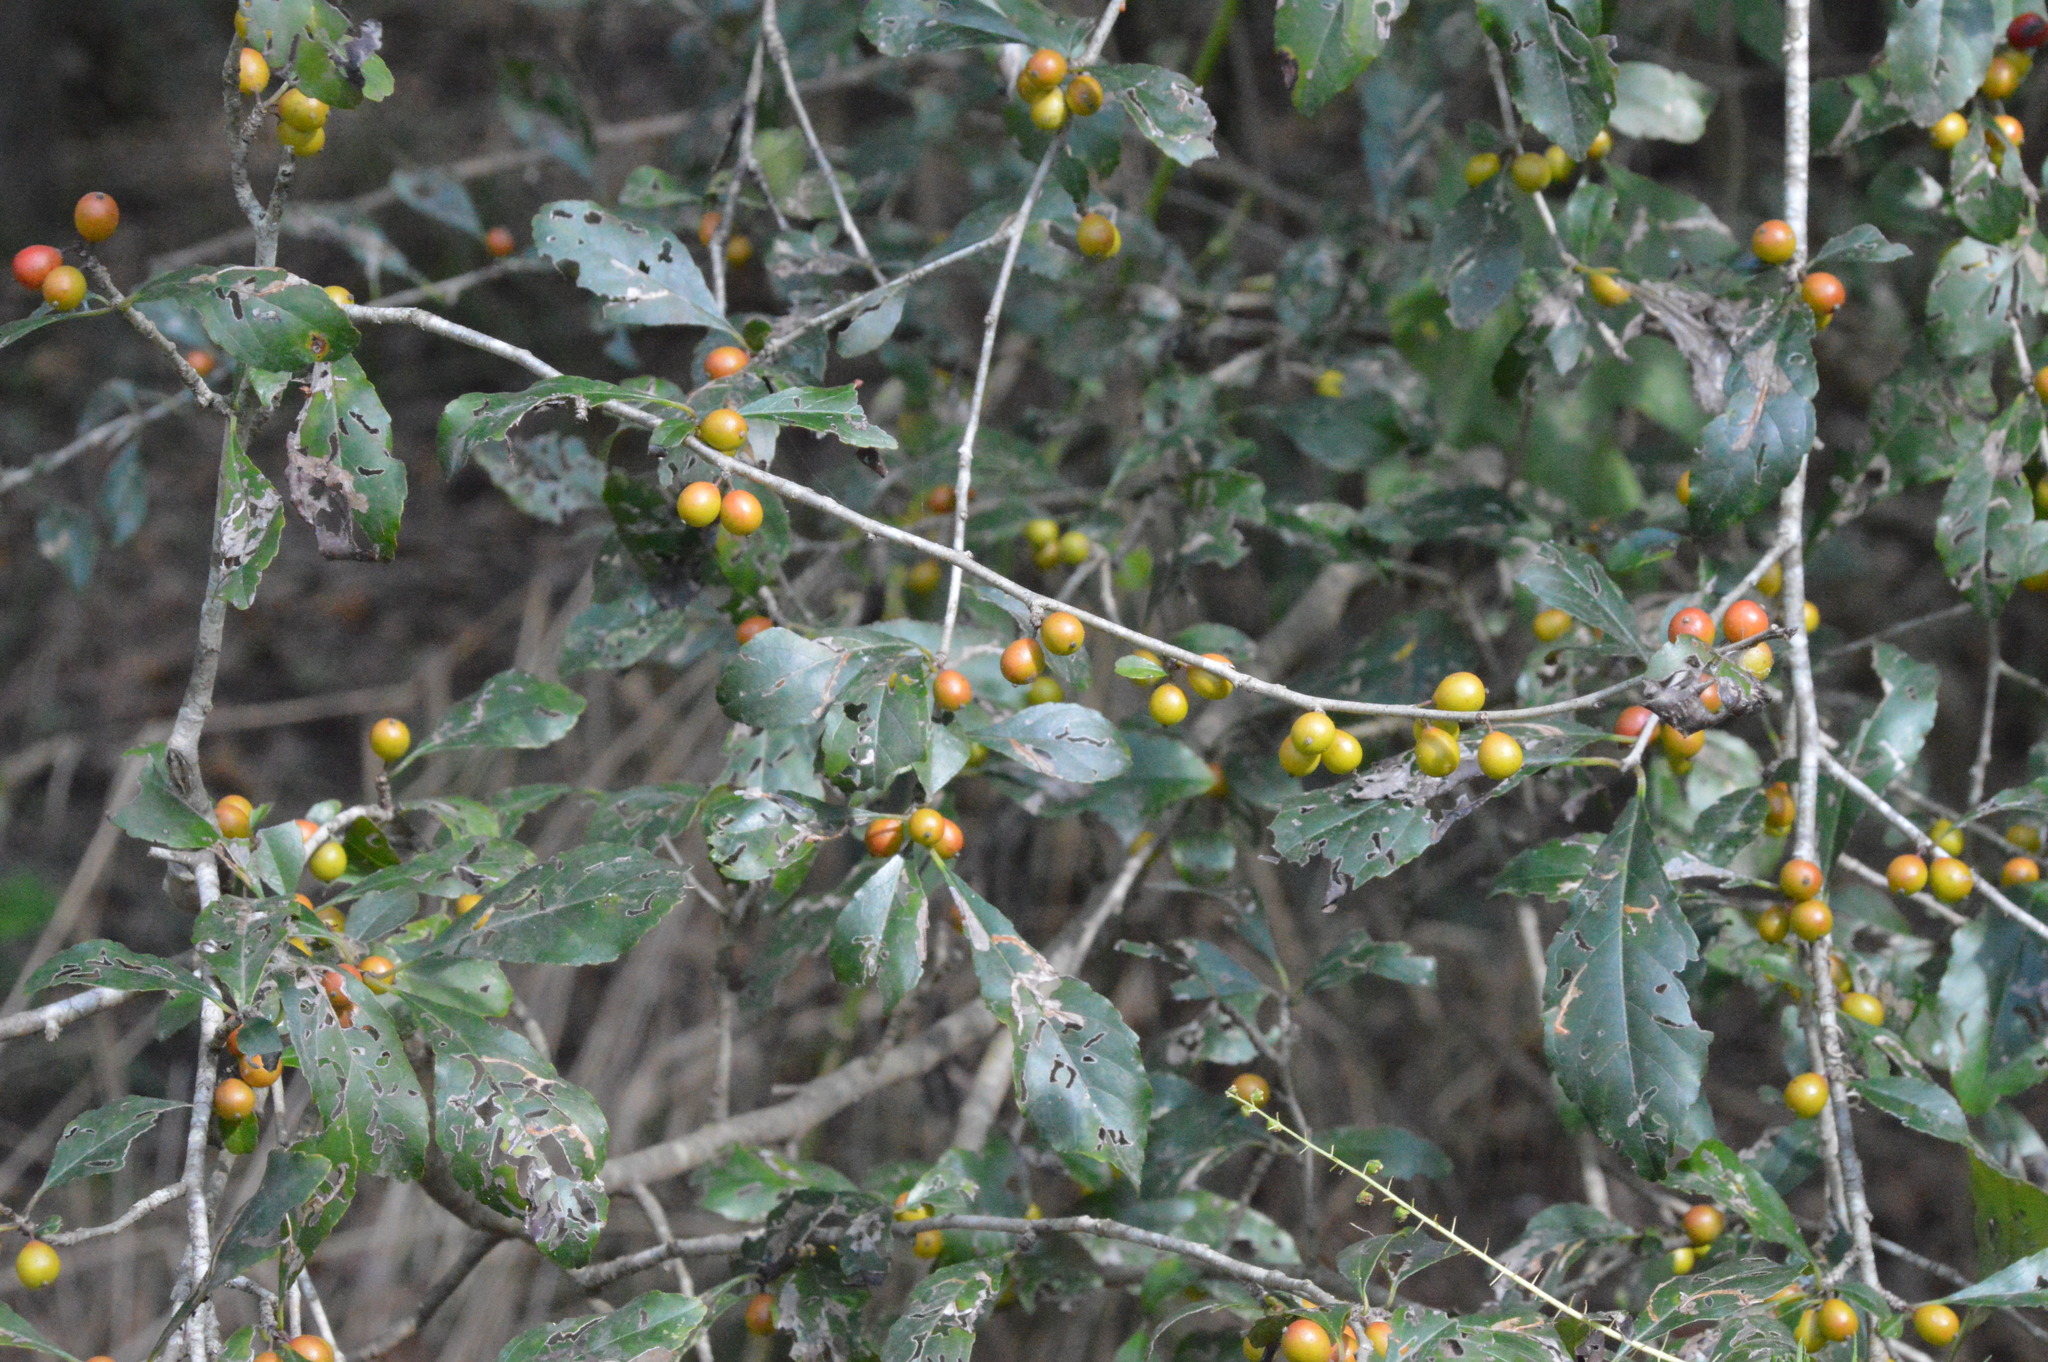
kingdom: Plantae
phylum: Tracheophyta
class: Magnoliopsida
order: Aquifoliales
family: Aquifoliaceae
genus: Ilex
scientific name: Ilex decidua
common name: Possum-haw
